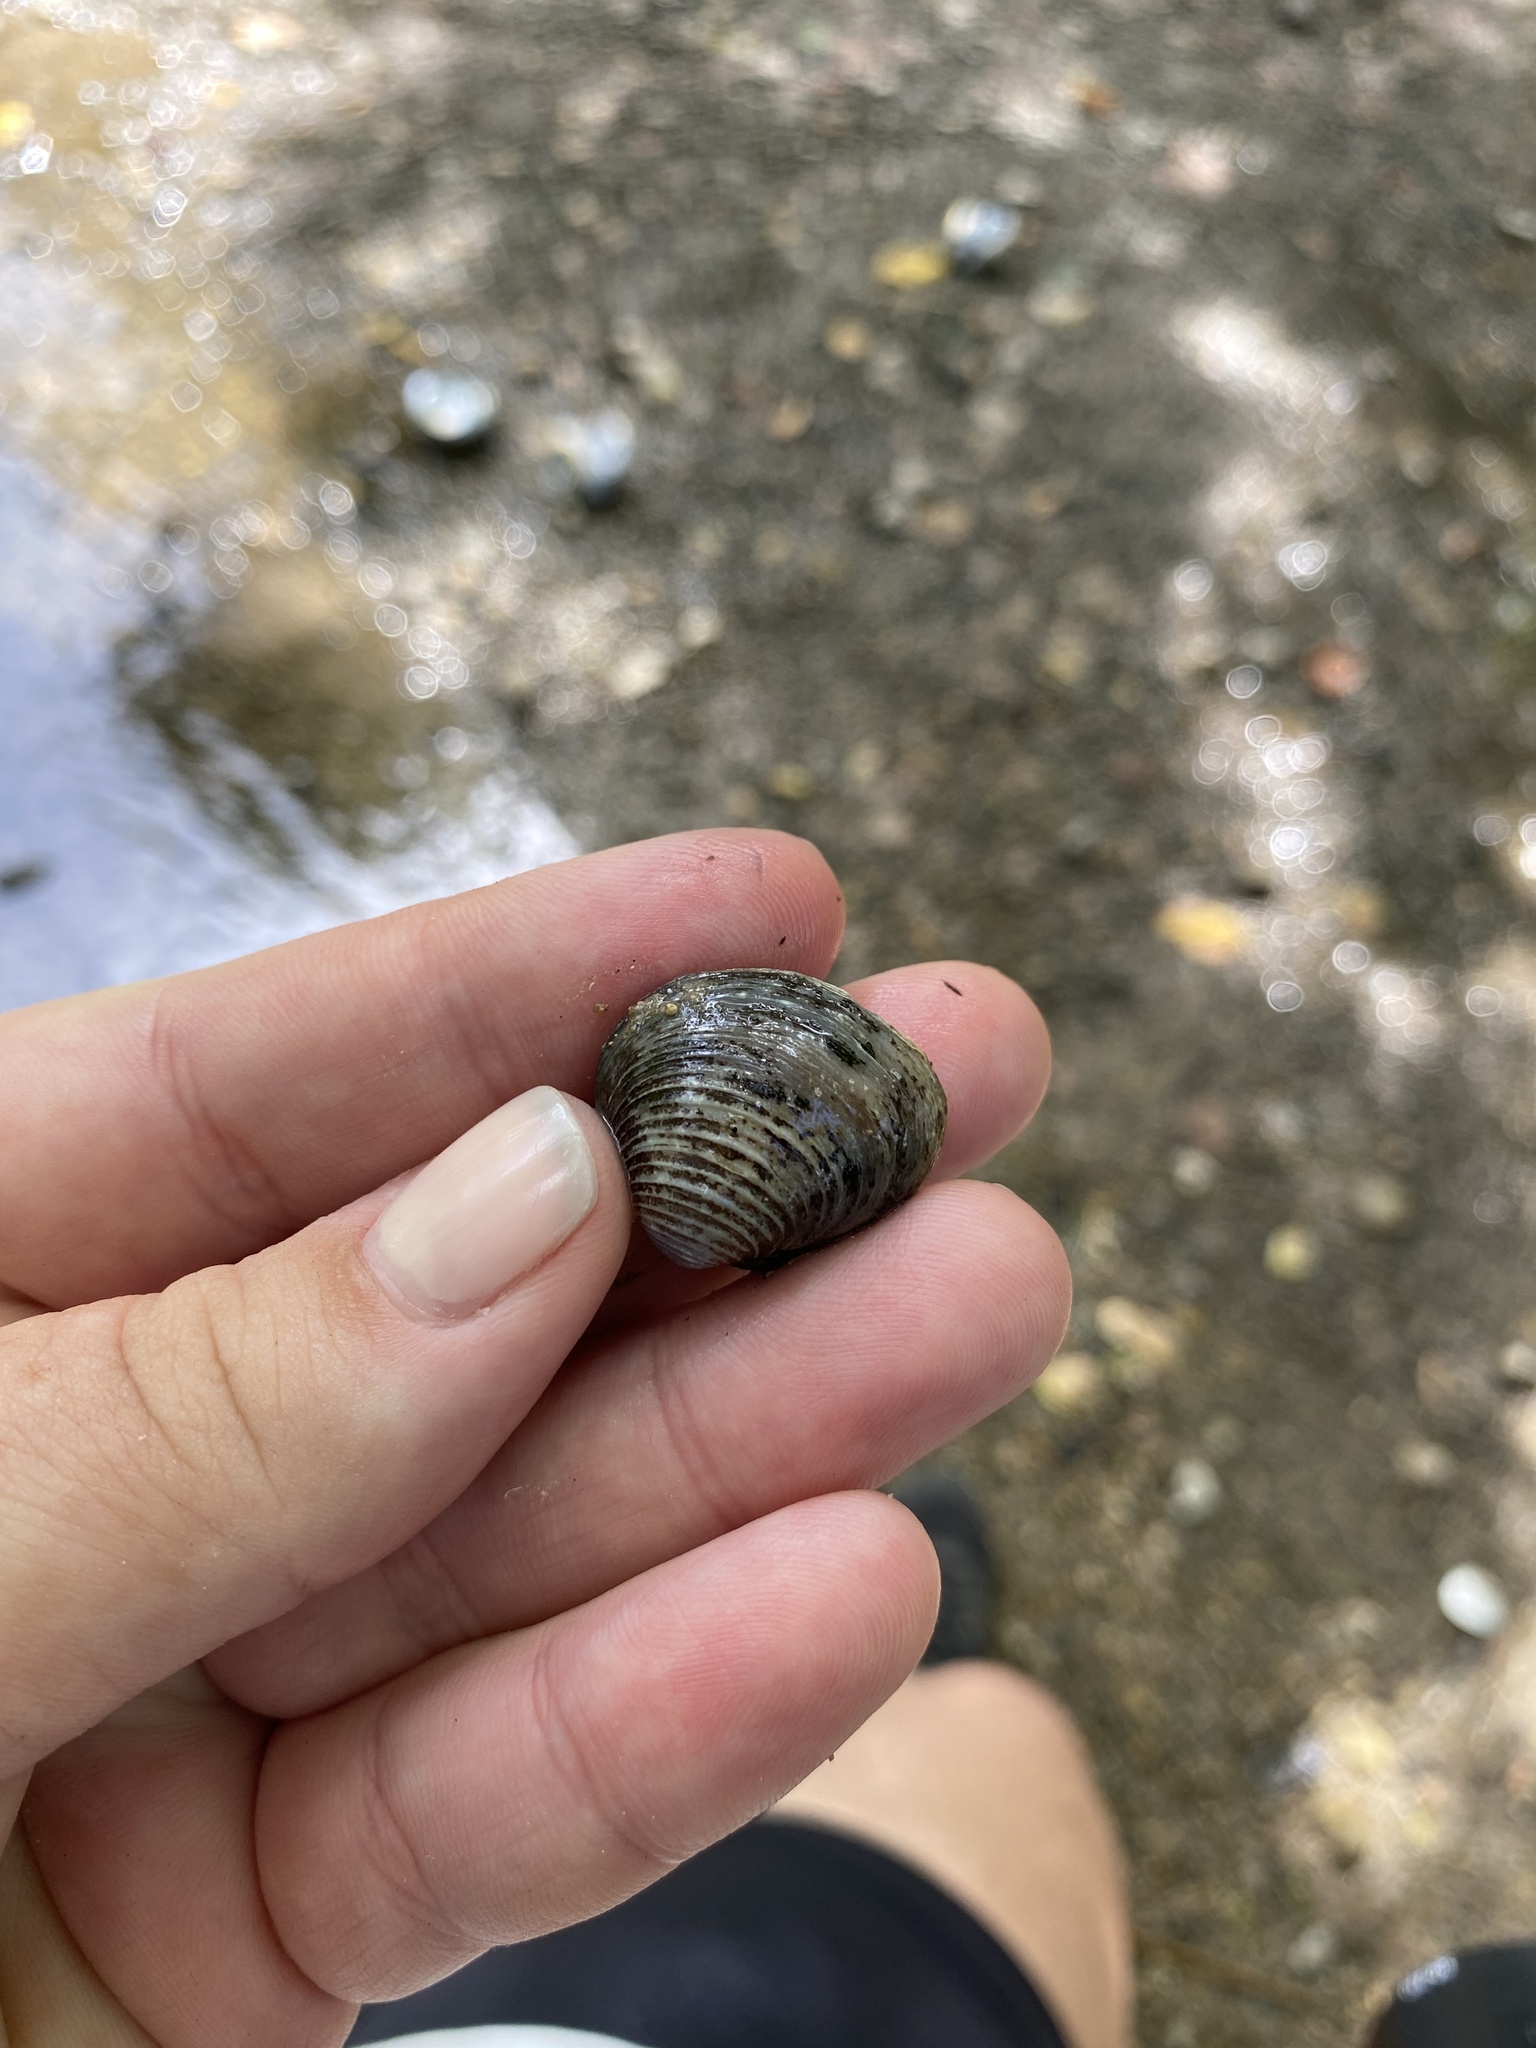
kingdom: Animalia
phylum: Mollusca
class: Bivalvia
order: Venerida
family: Cyrenidae
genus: Corbicula
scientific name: Corbicula fluminea
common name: Asian clam
